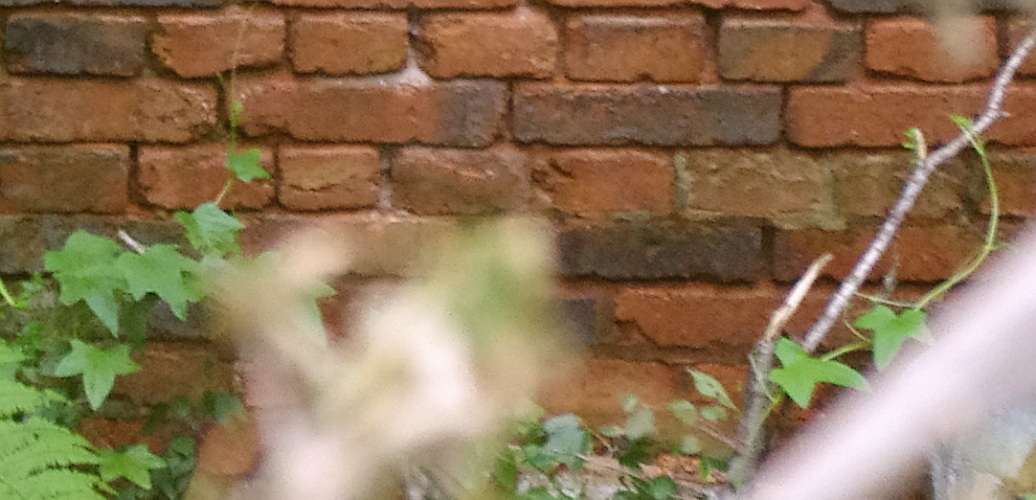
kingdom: Plantae
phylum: Tracheophyta
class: Magnoliopsida
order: Cucurbitales
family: Cucurbitaceae
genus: Echinocystis
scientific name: Echinocystis lobata
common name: Wild cucumber
